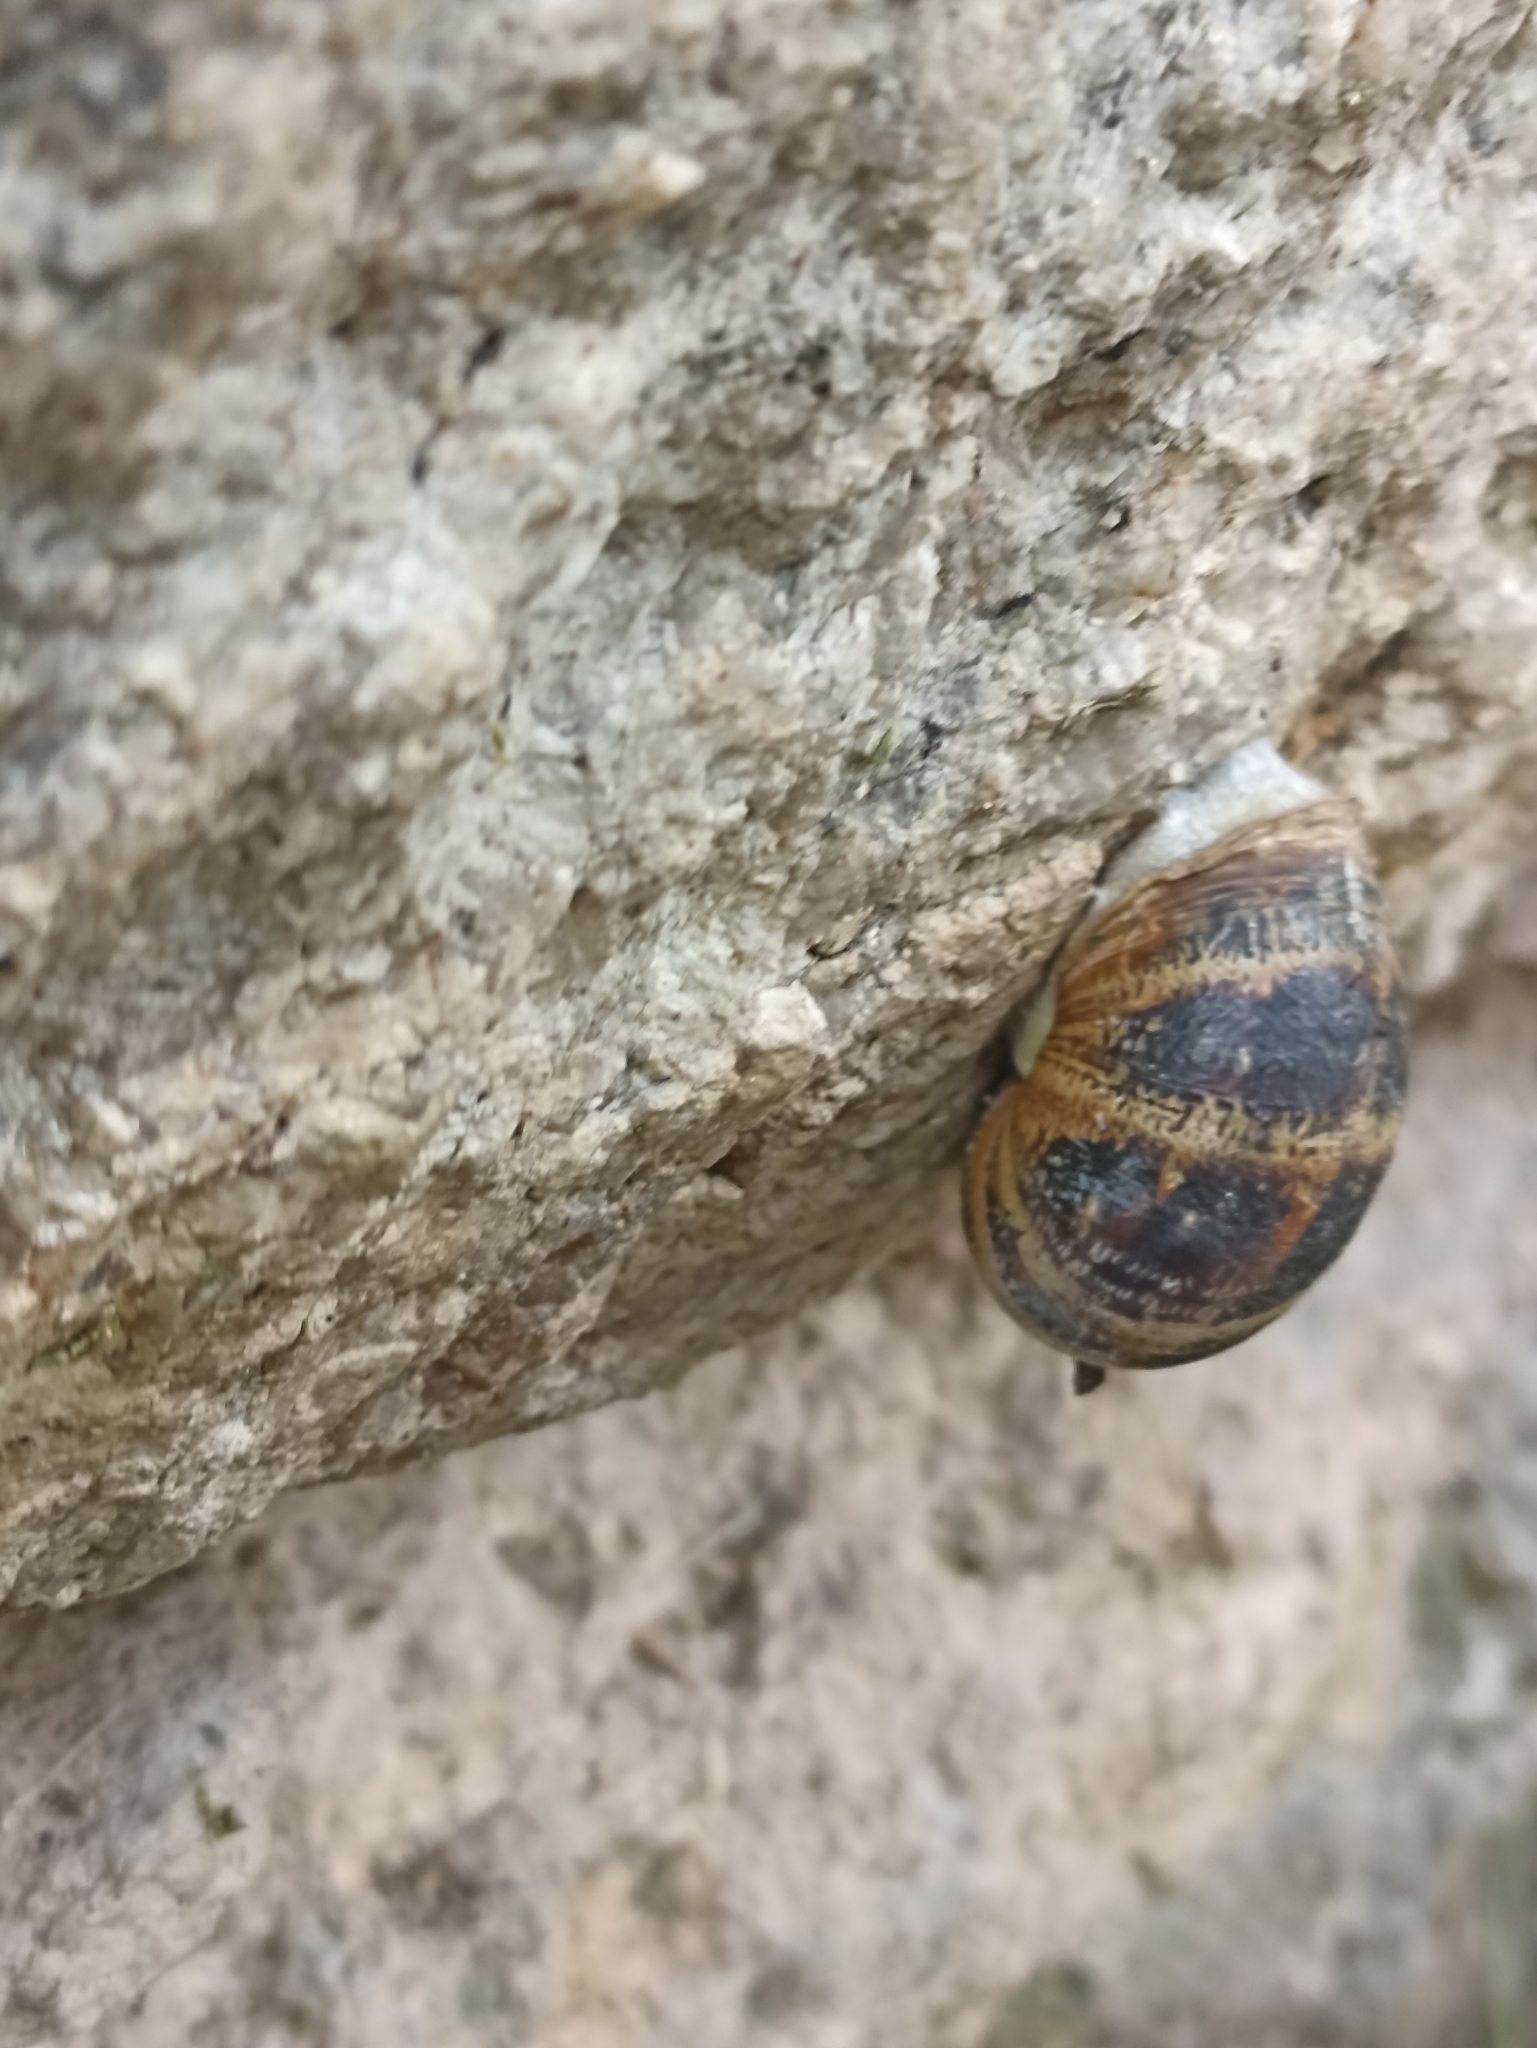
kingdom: Animalia
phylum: Mollusca
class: Gastropoda
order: Stylommatophora
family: Helicidae
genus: Cornu
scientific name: Cornu aspersum
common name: Brown garden snail
